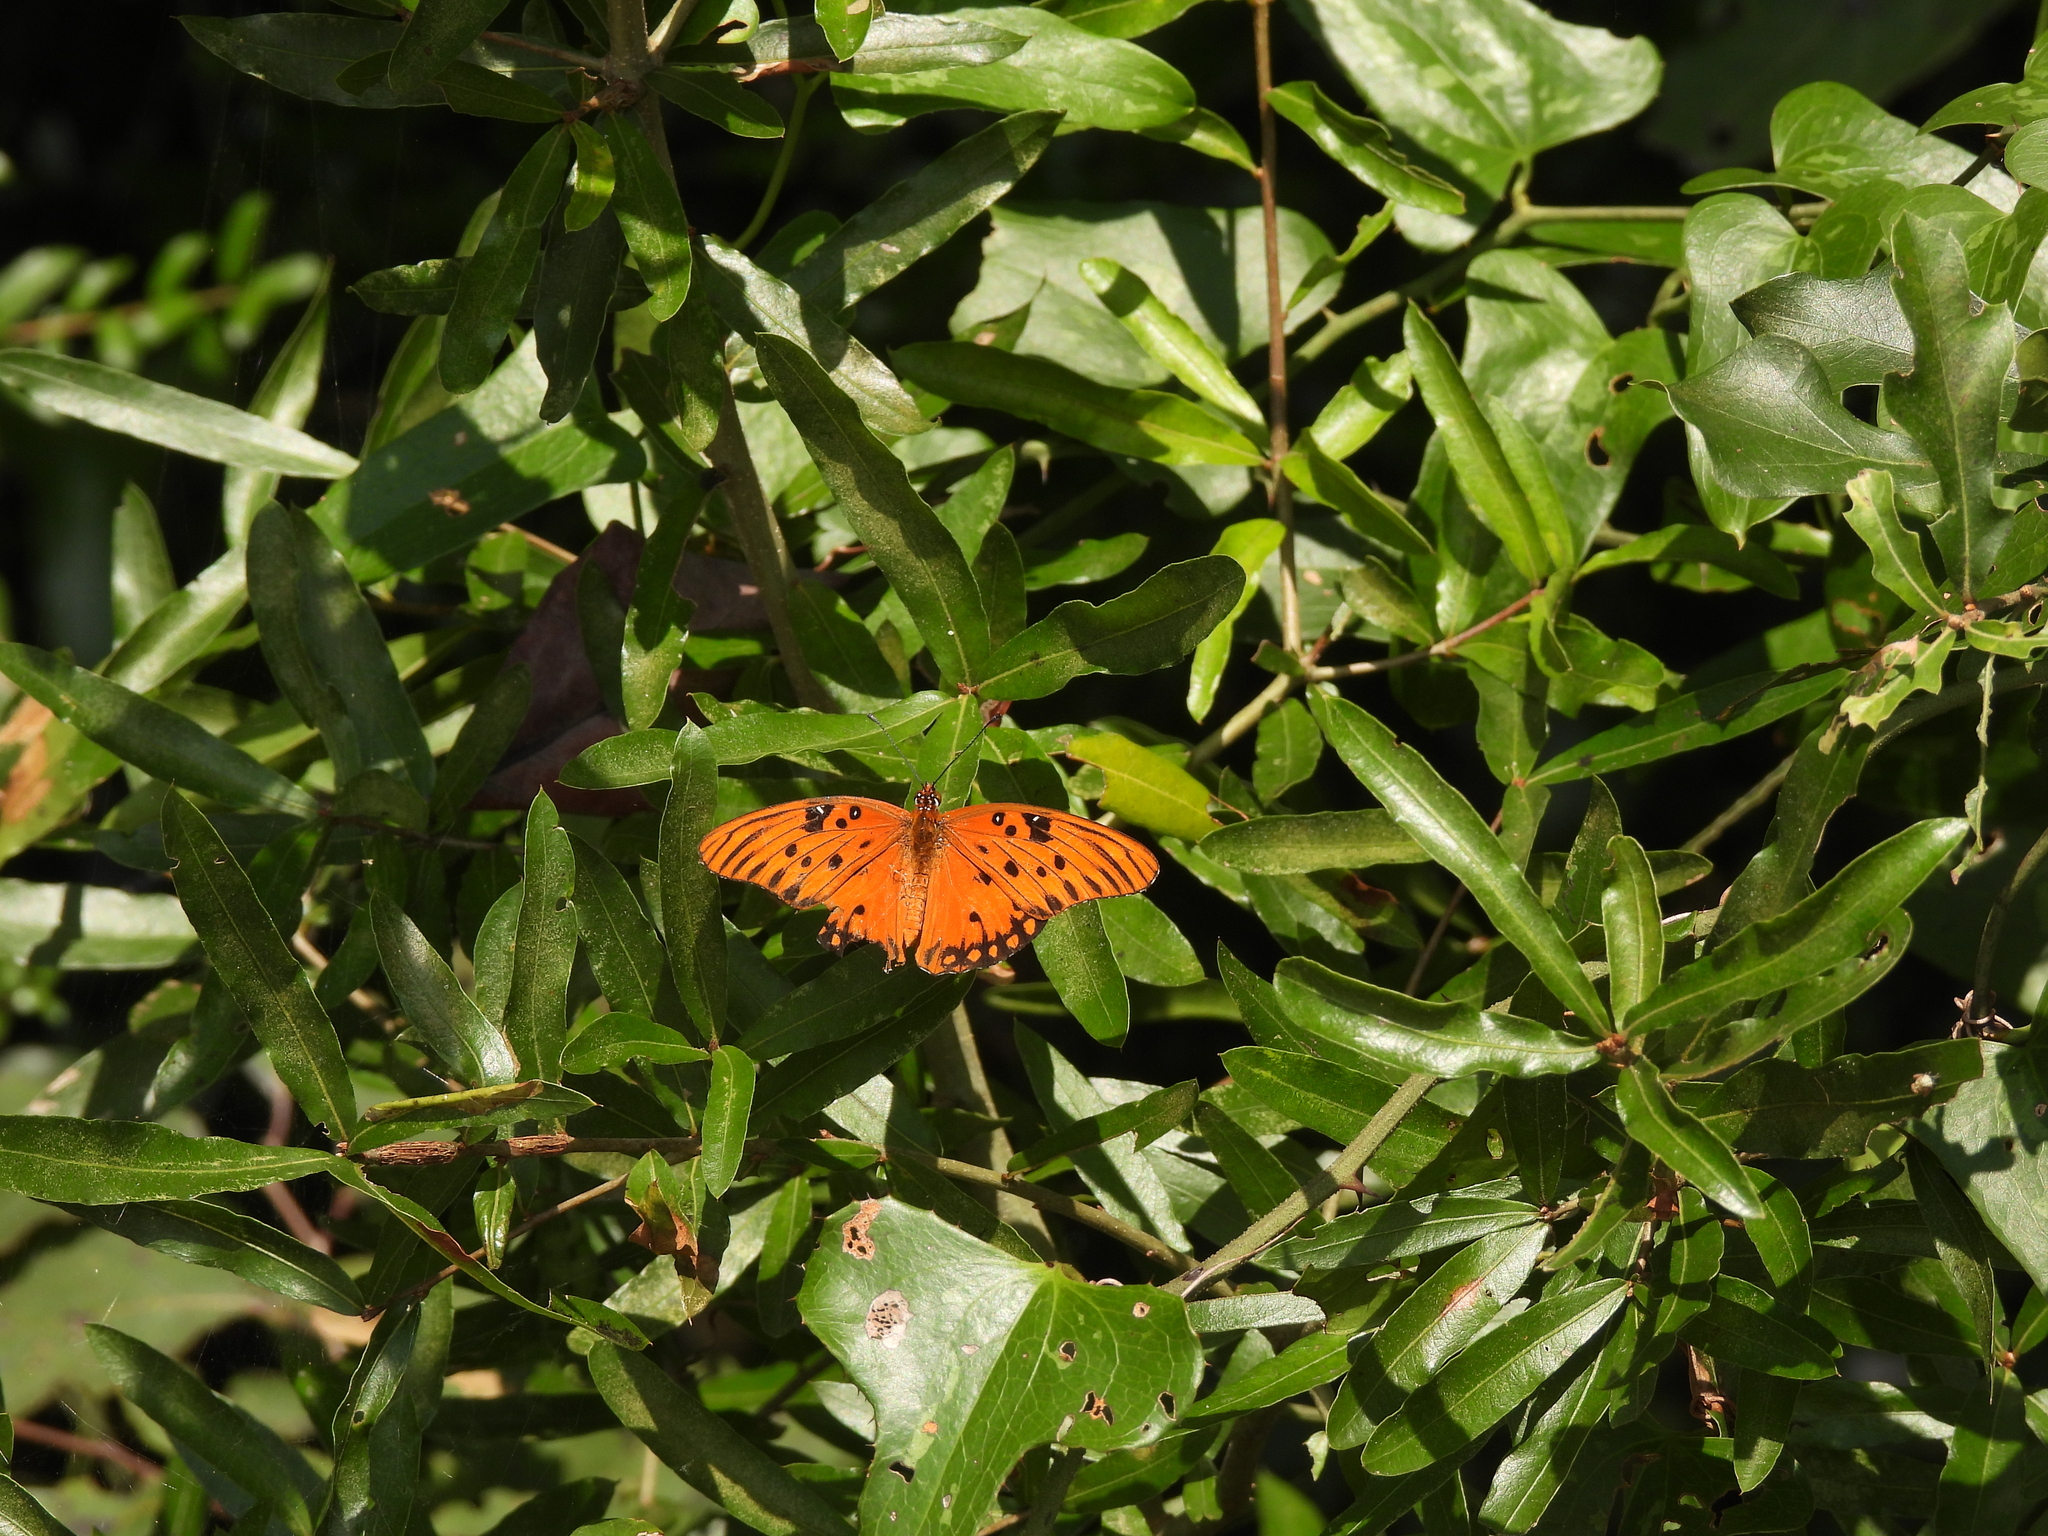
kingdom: Animalia
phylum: Arthropoda
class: Insecta
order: Lepidoptera
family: Nymphalidae
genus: Dione
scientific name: Dione vanillae
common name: Gulf fritillary
